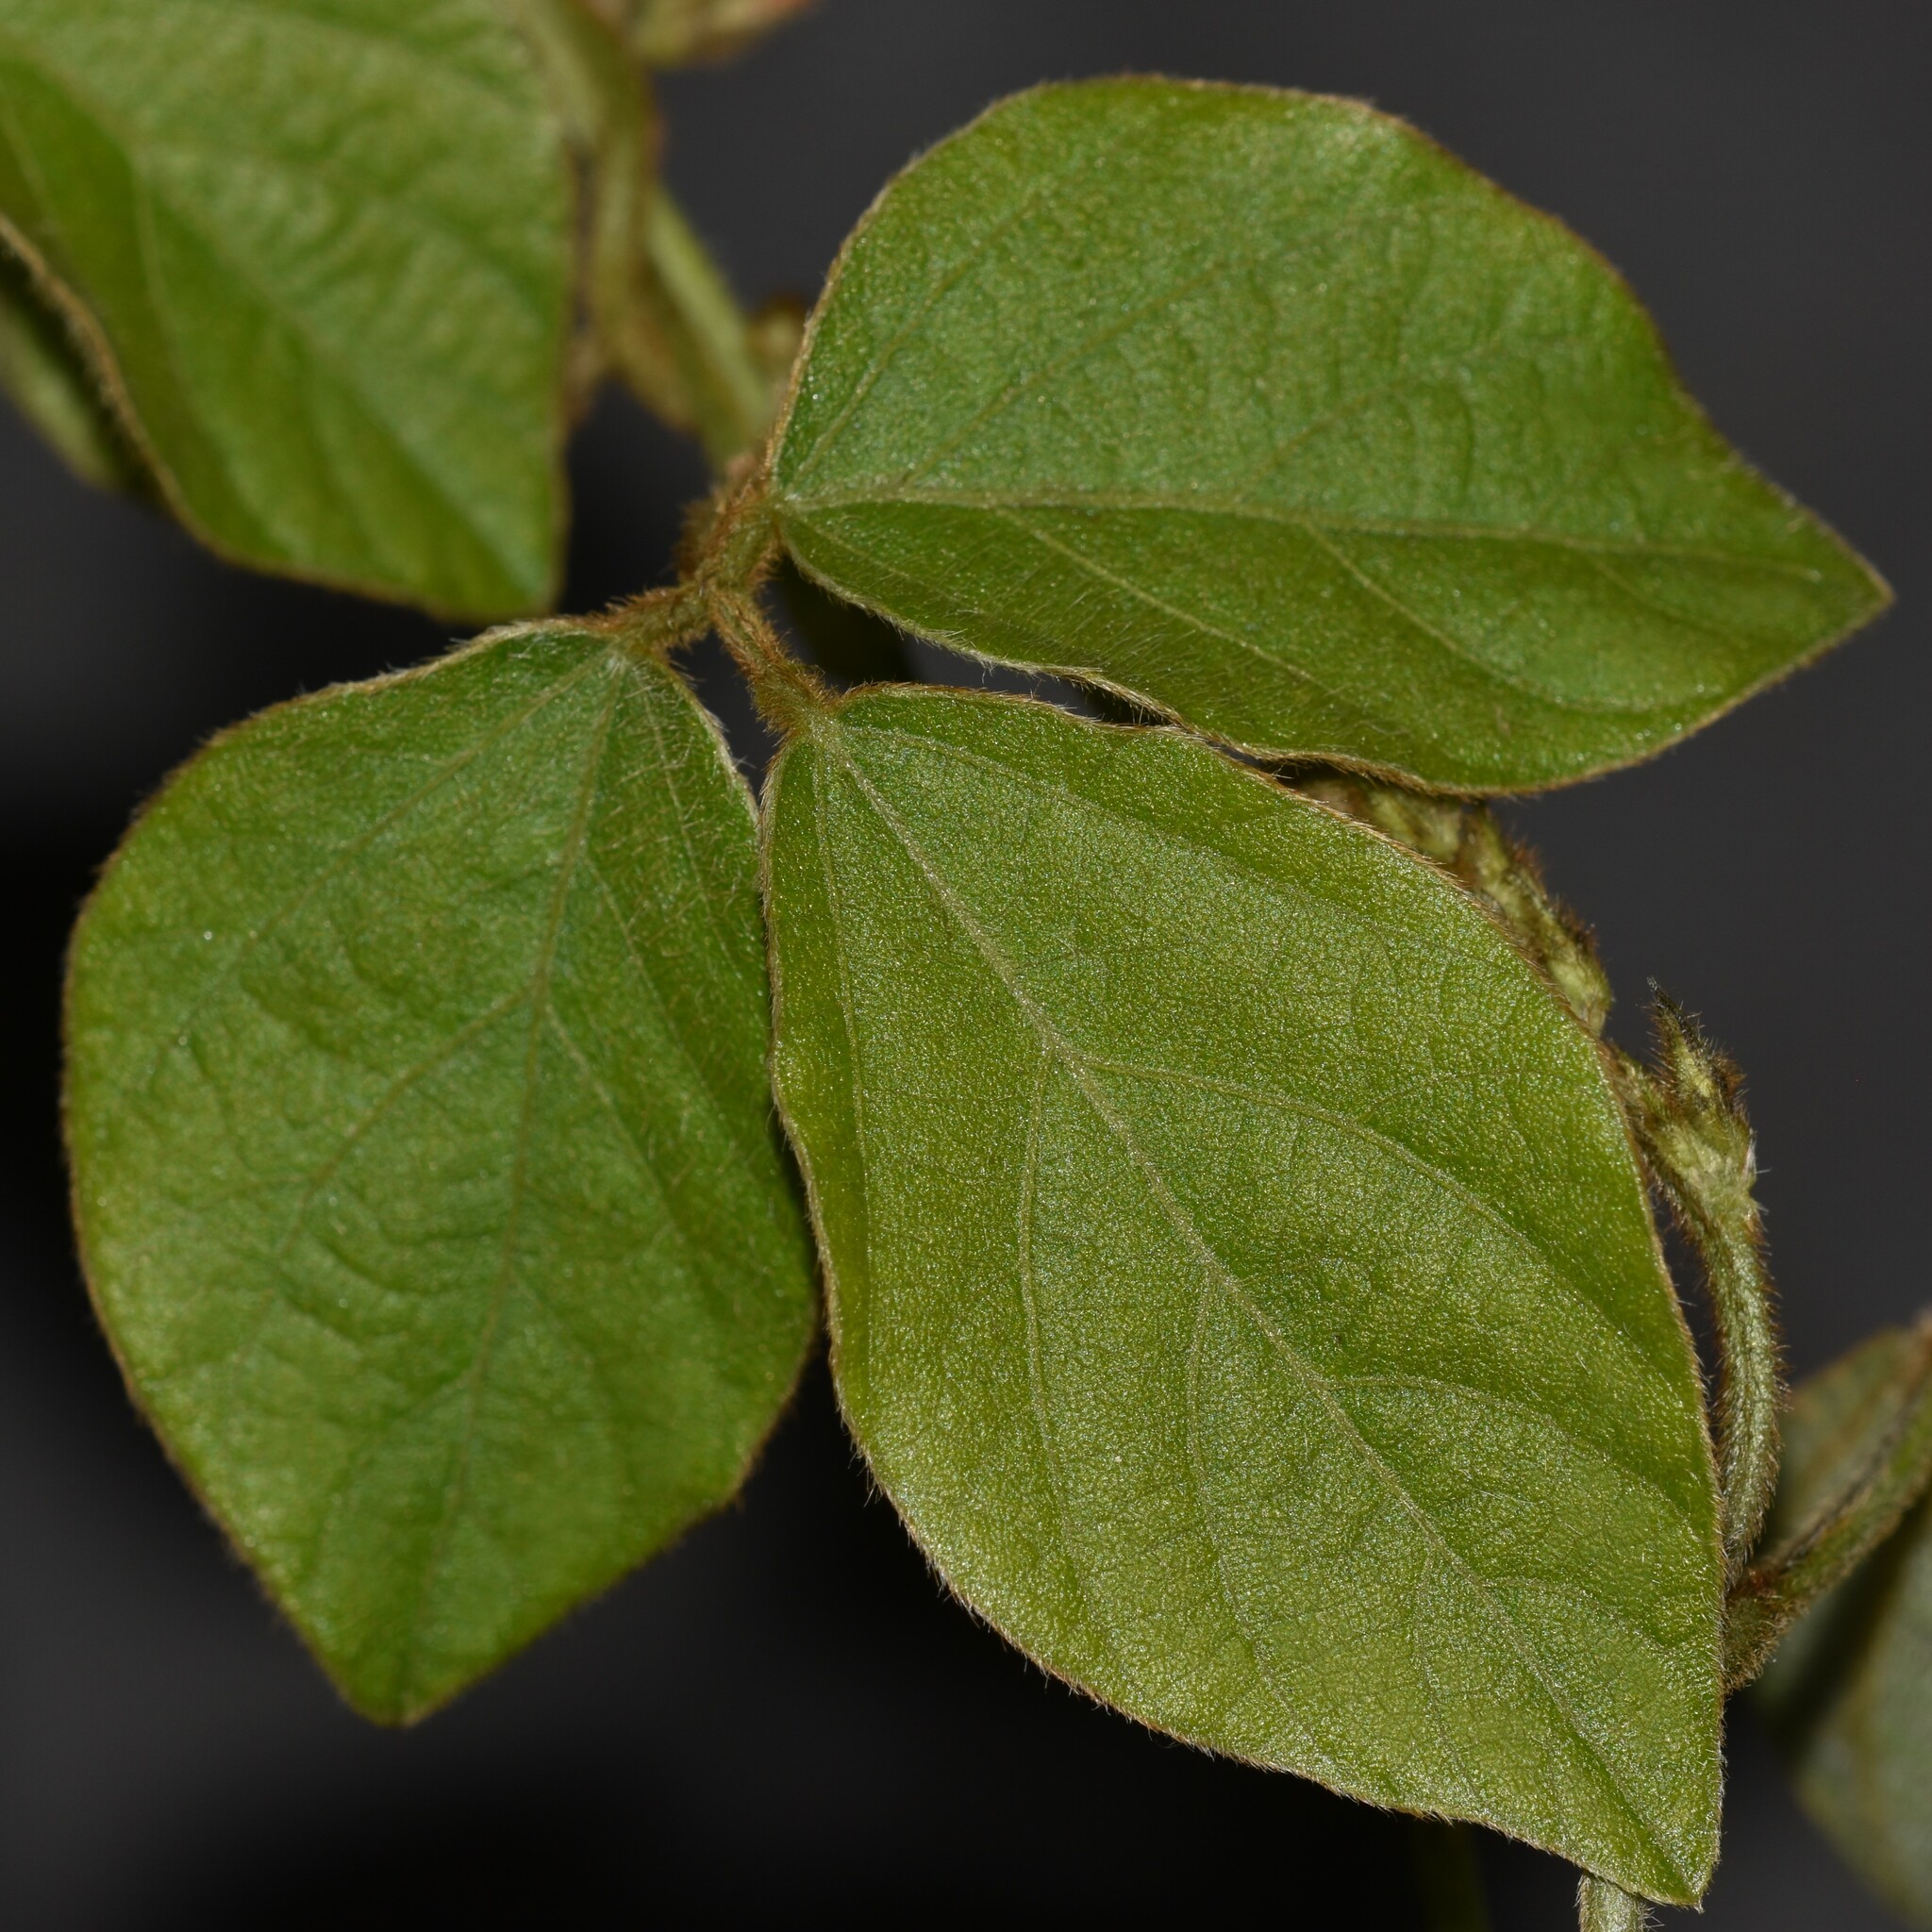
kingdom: Plantae
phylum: Tracheophyta
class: Magnoliopsida
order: Fabales
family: Fabaceae
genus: Neonotonia
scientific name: Neonotonia wightii
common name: Perennial soybean
